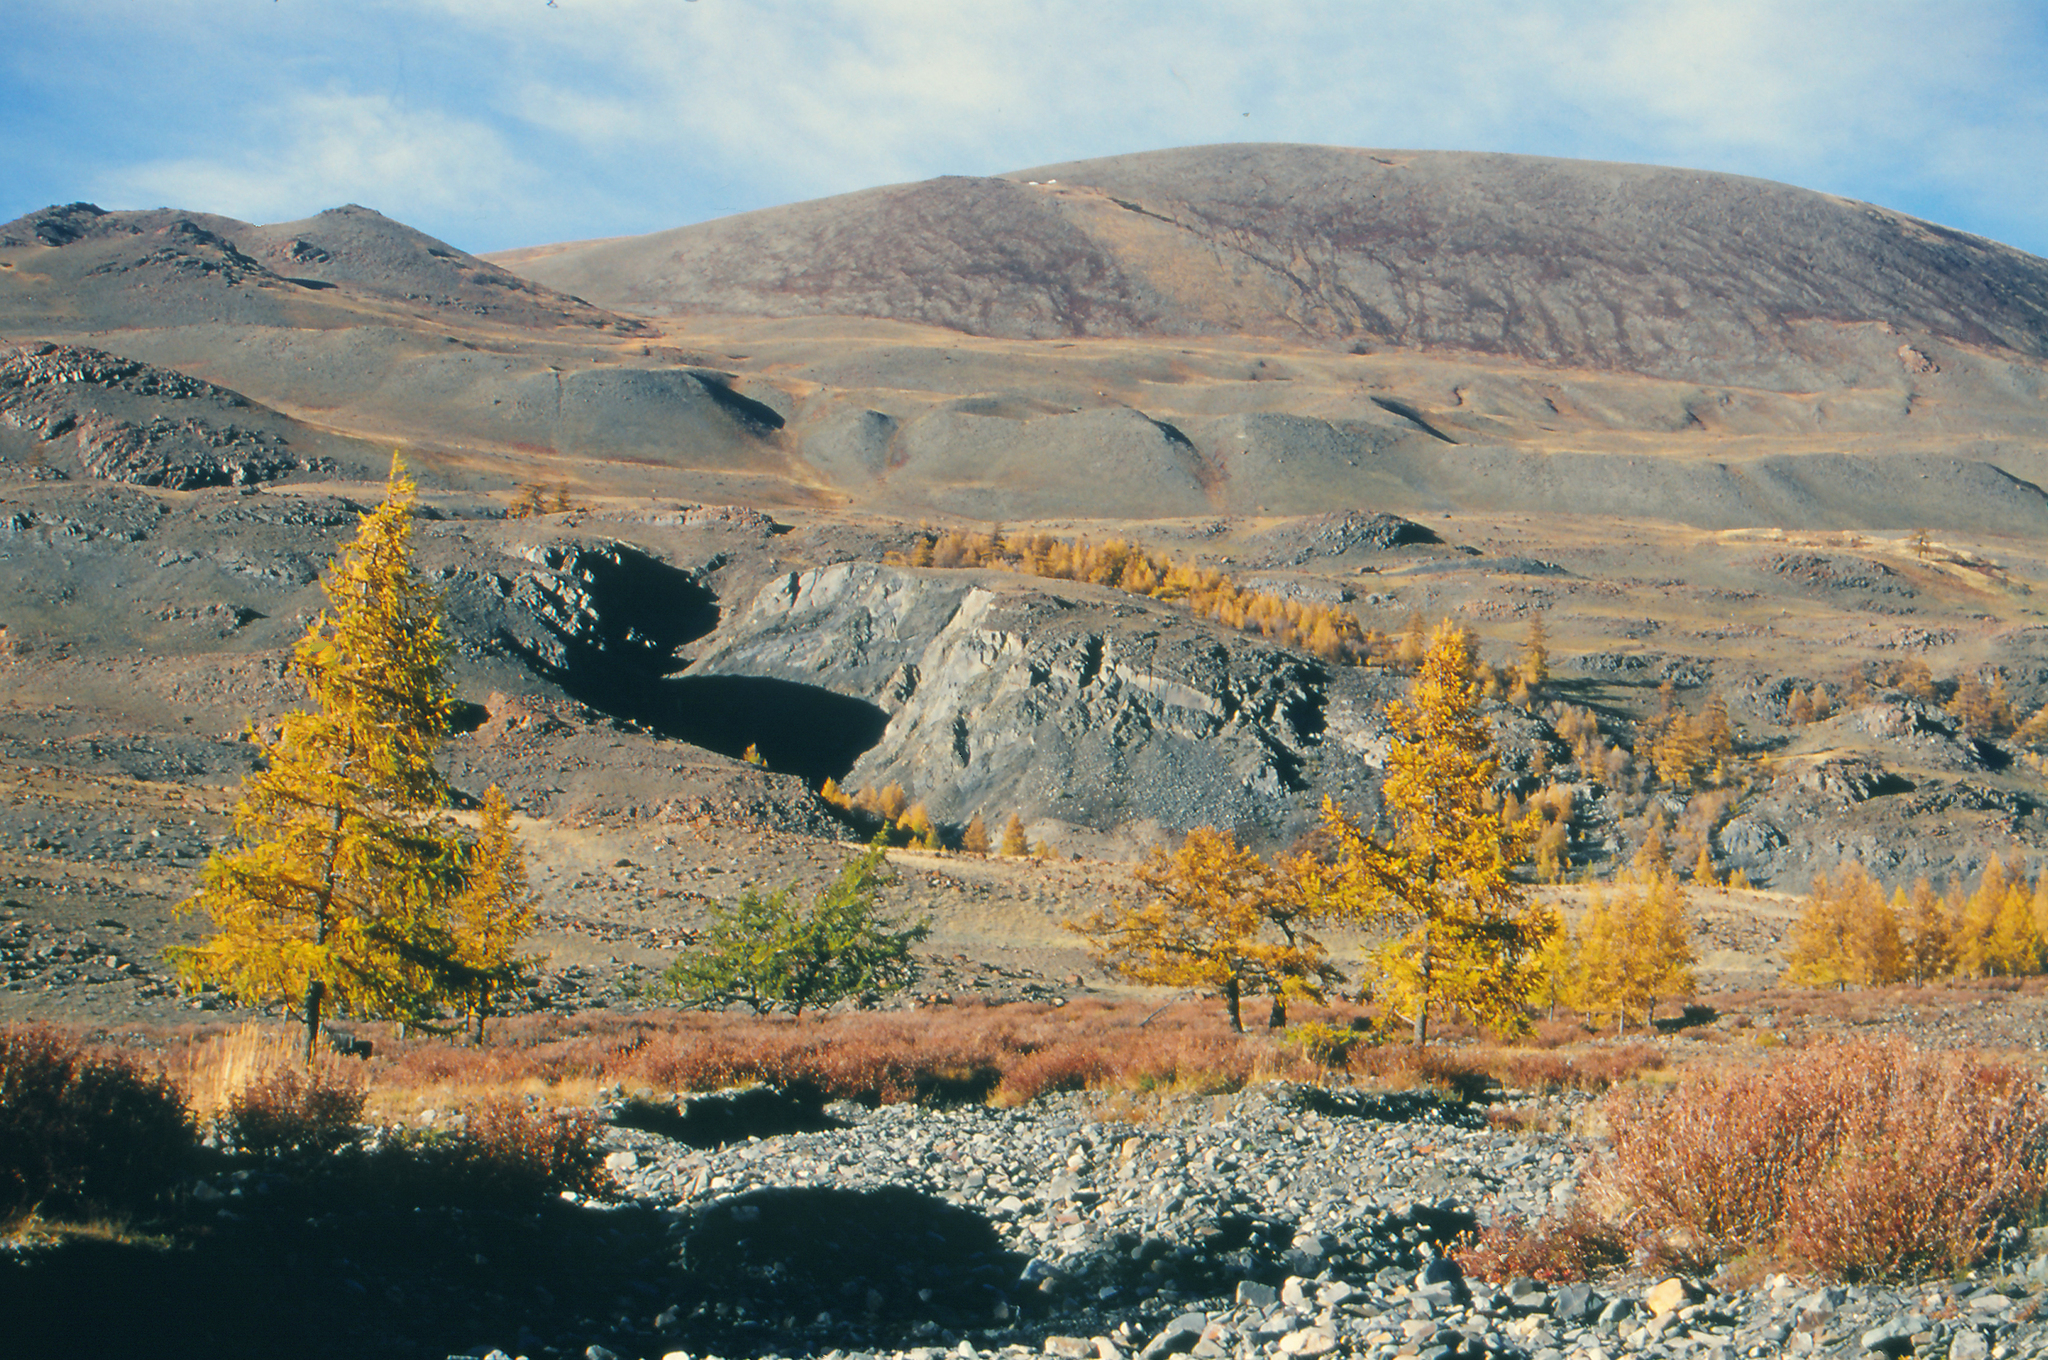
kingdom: Plantae
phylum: Tracheophyta
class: Pinopsida
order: Pinales
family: Pinaceae
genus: Larix
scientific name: Larix sibirica
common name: Siberian larch
